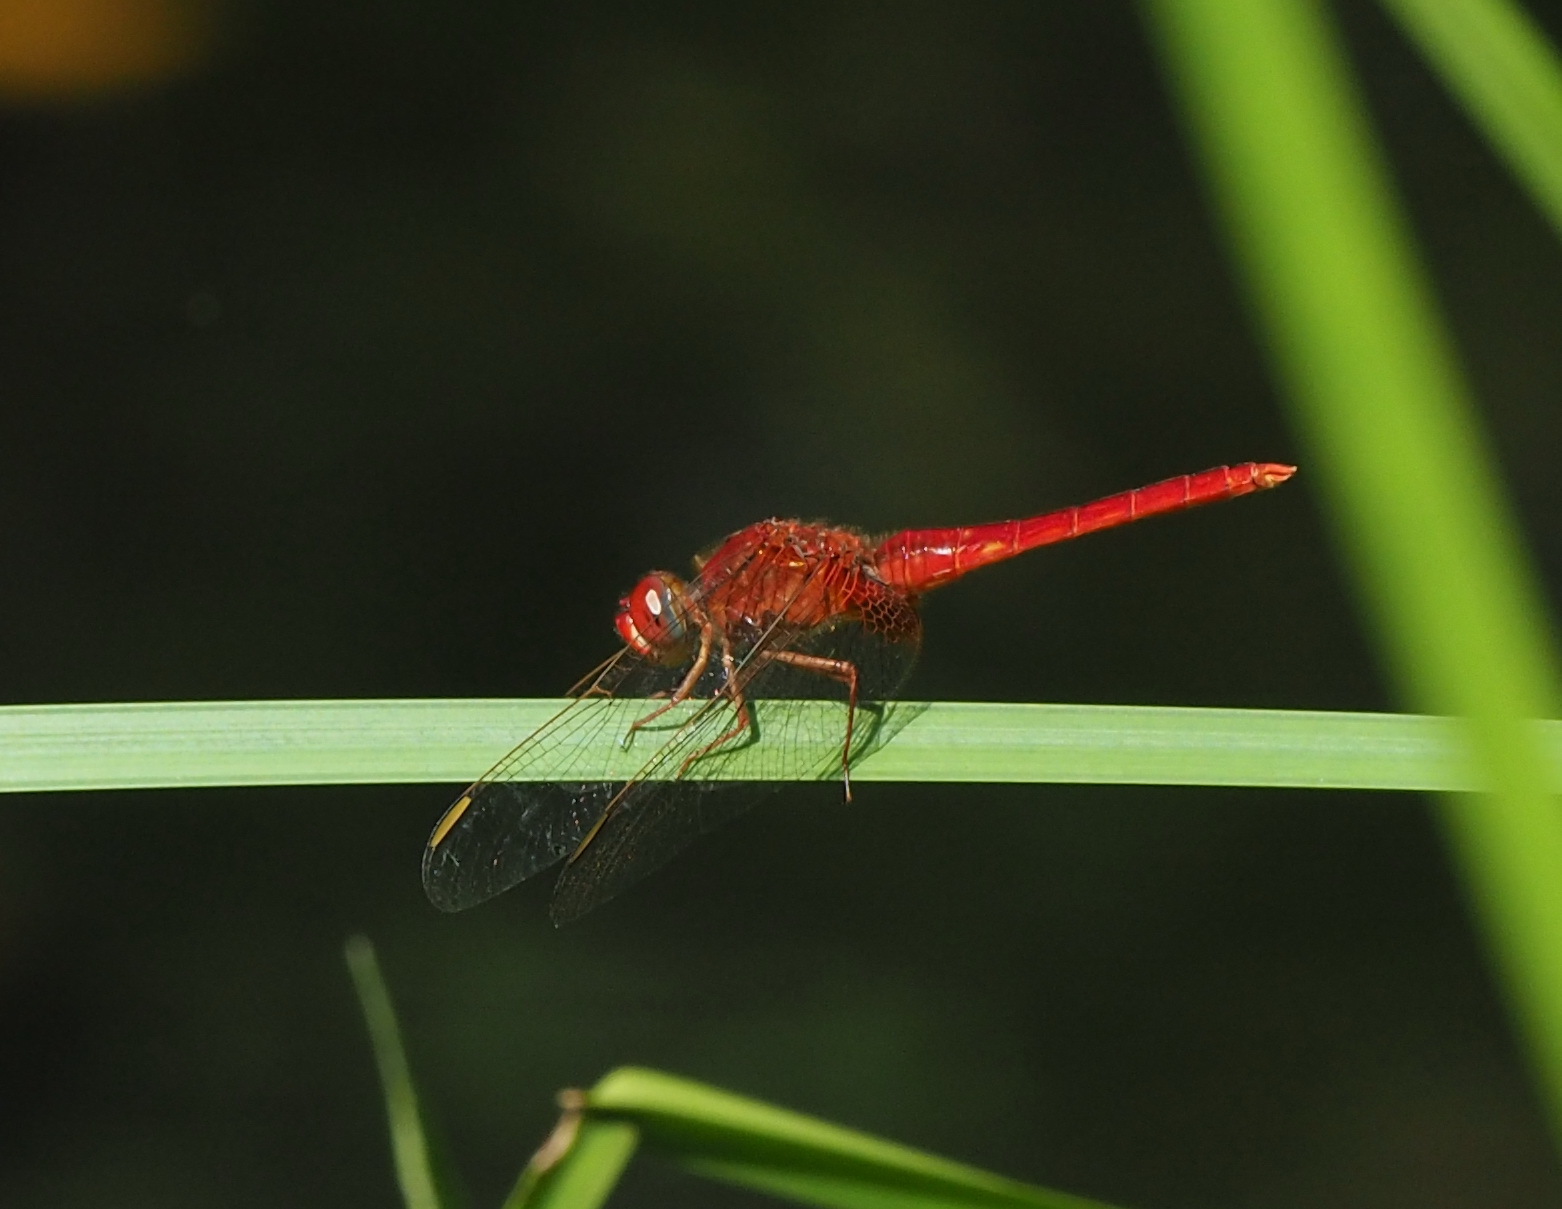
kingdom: Animalia
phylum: Arthropoda
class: Insecta
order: Odonata
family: Libellulidae
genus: Crocothemis
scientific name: Crocothemis servilia
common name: Scarlet skimmer
